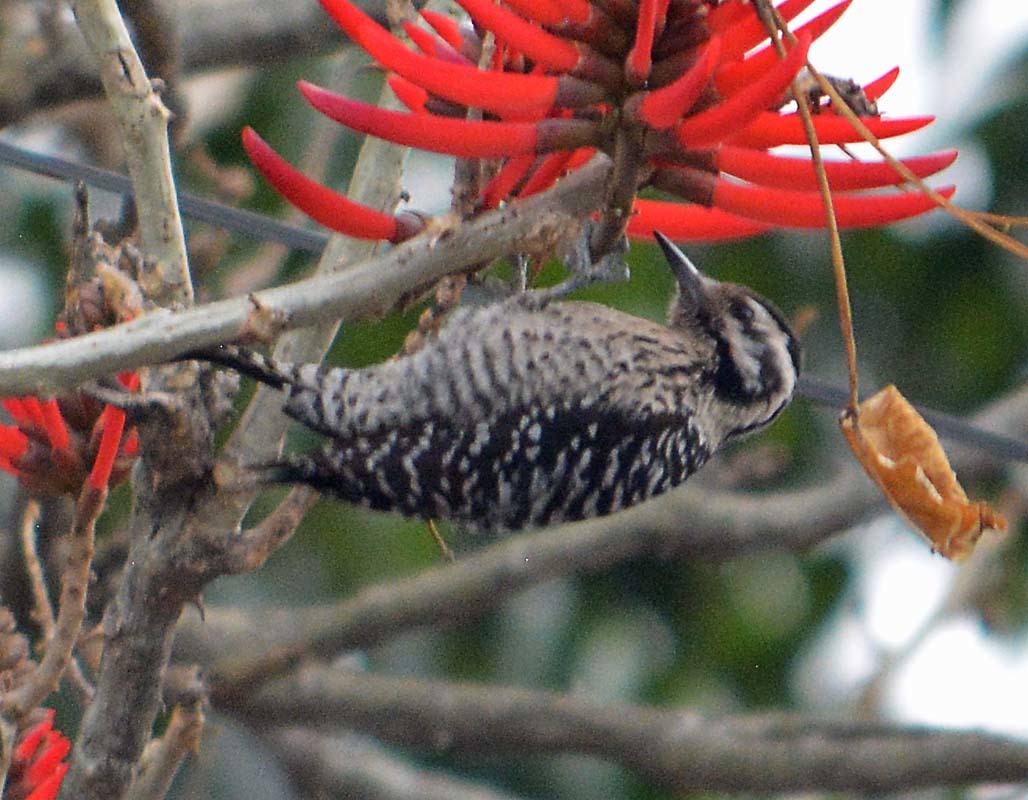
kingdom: Animalia
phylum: Chordata
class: Aves
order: Piciformes
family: Picidae
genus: Dryobates
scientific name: Dryobates scalaris
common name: Ladder-backed woodpecker
